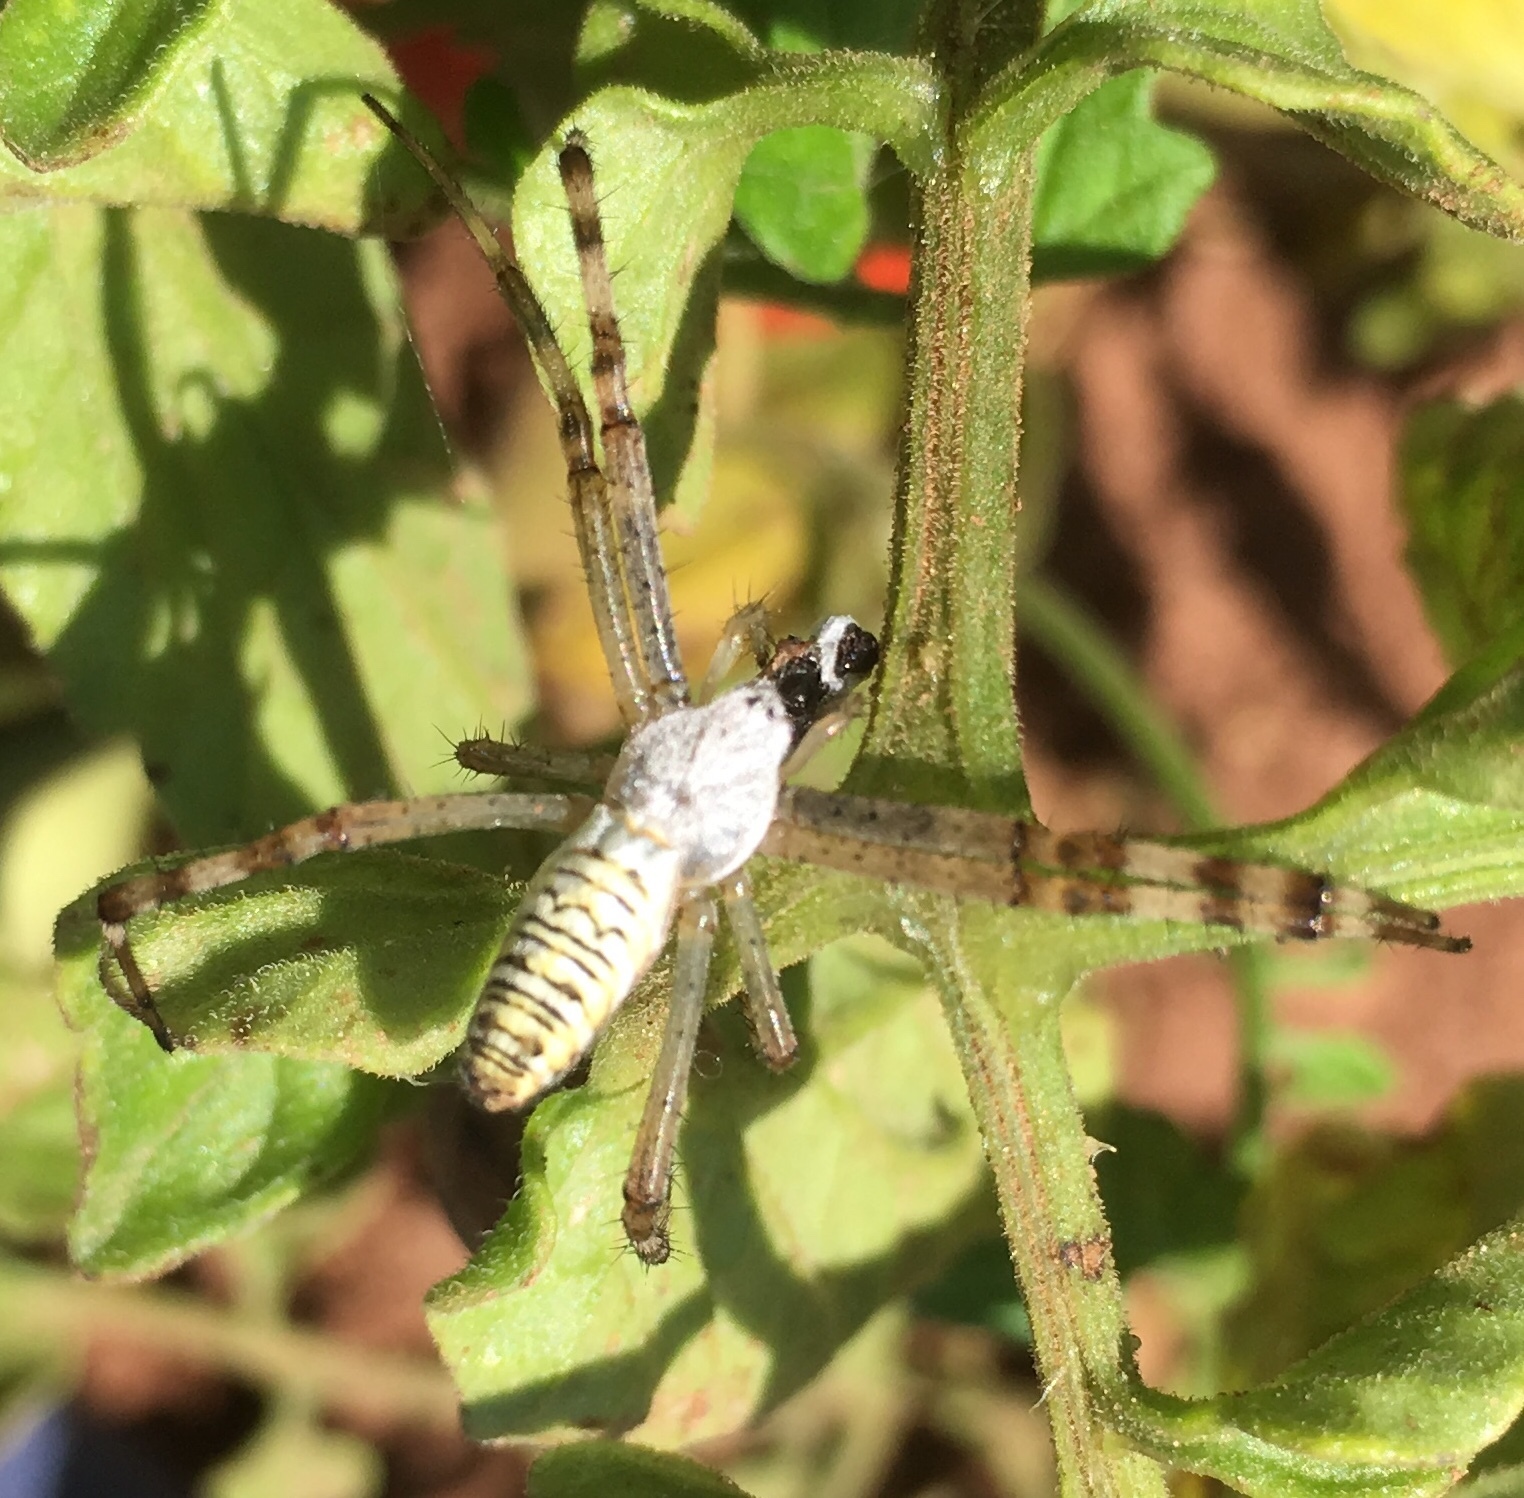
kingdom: Animalia
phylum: Arthropoda
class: Arachnida
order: Araneae
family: Araneidae
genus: Argiope
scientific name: Argiope bruennichi
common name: Wasp spider
